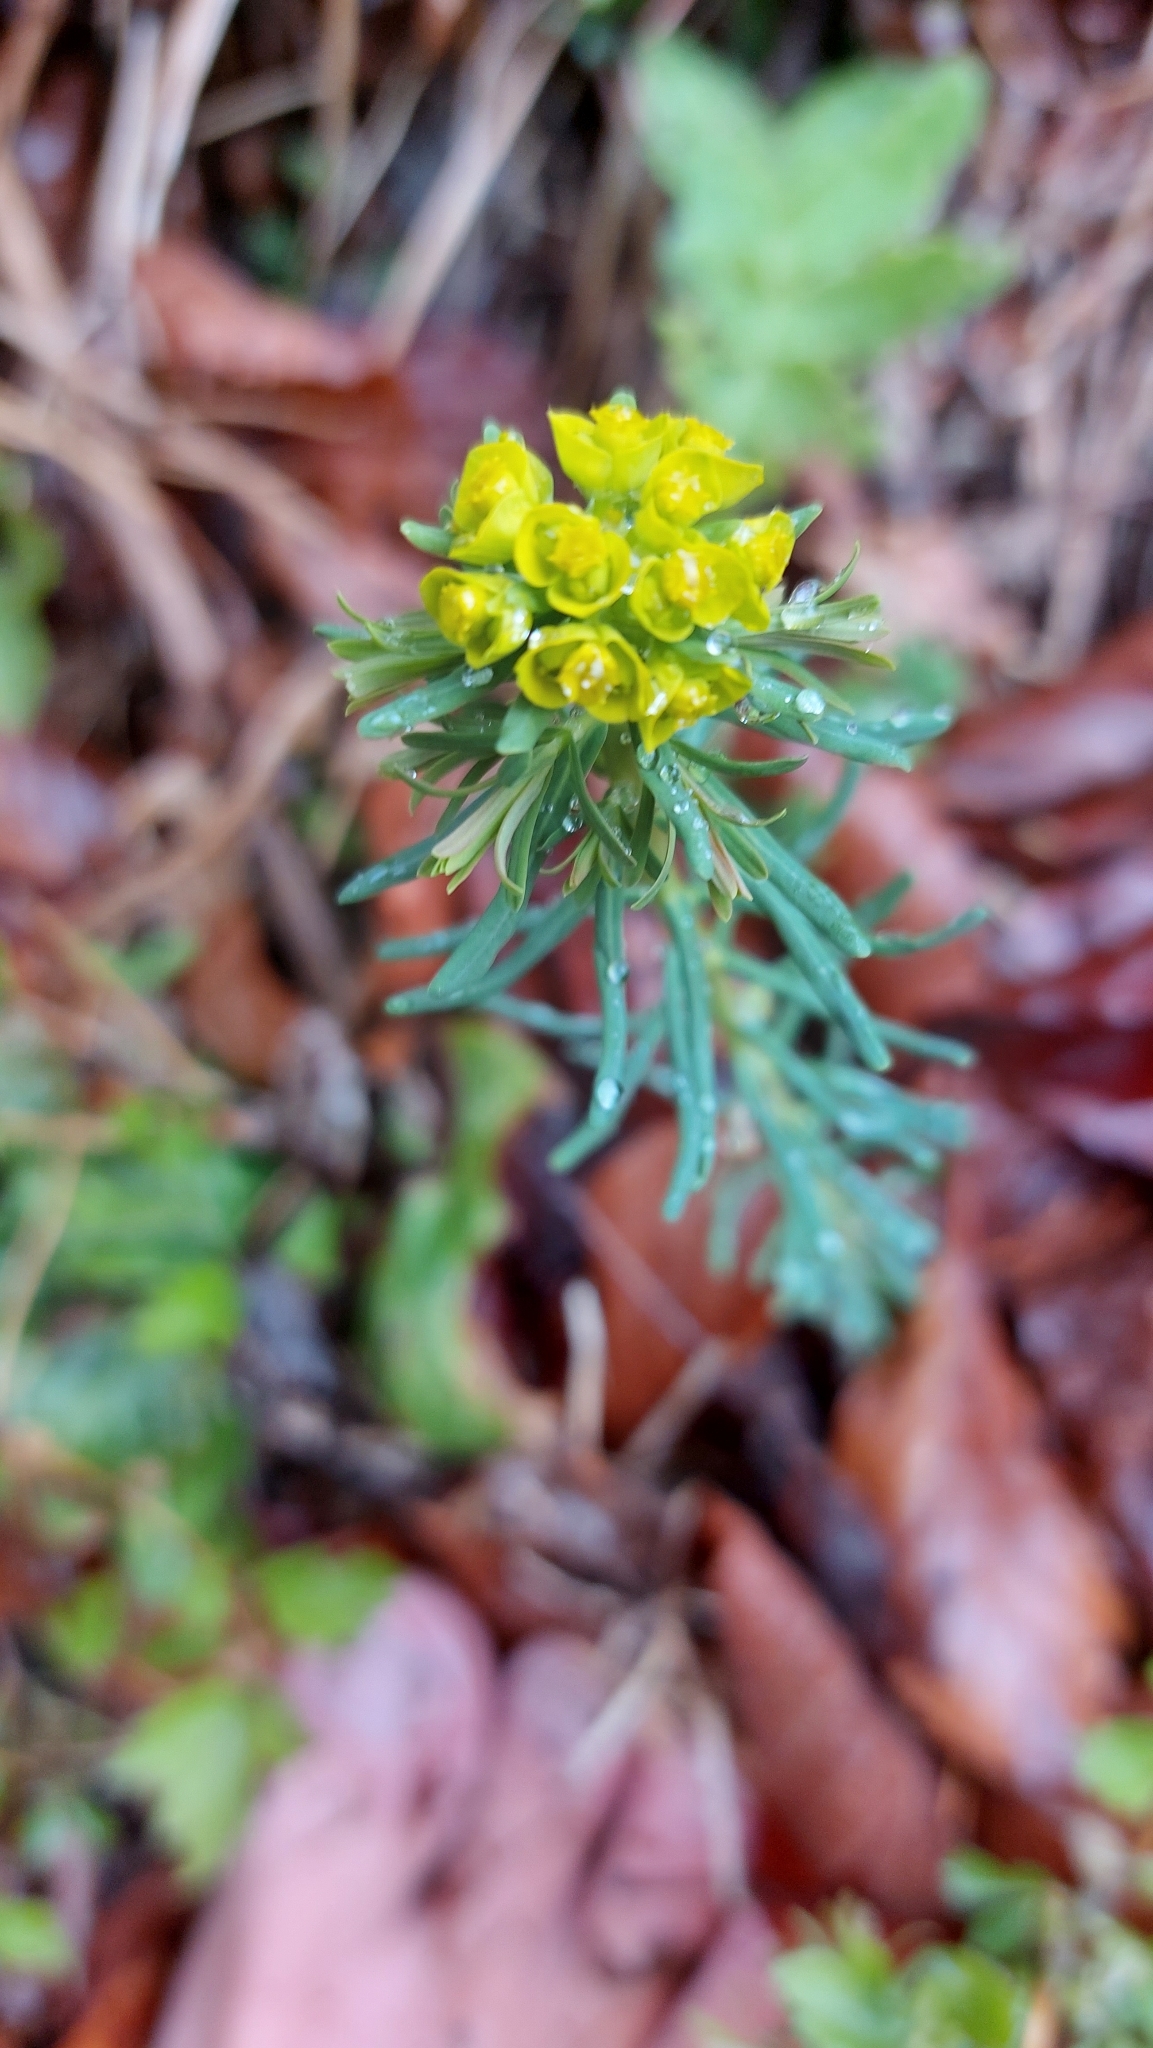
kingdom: Plantae
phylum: Tracheophyta
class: Magnoliopsida
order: Malpighiales
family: Euphorbiaceae
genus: Euphorbia
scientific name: Euphorbia cyparissias
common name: Cypress spurge
